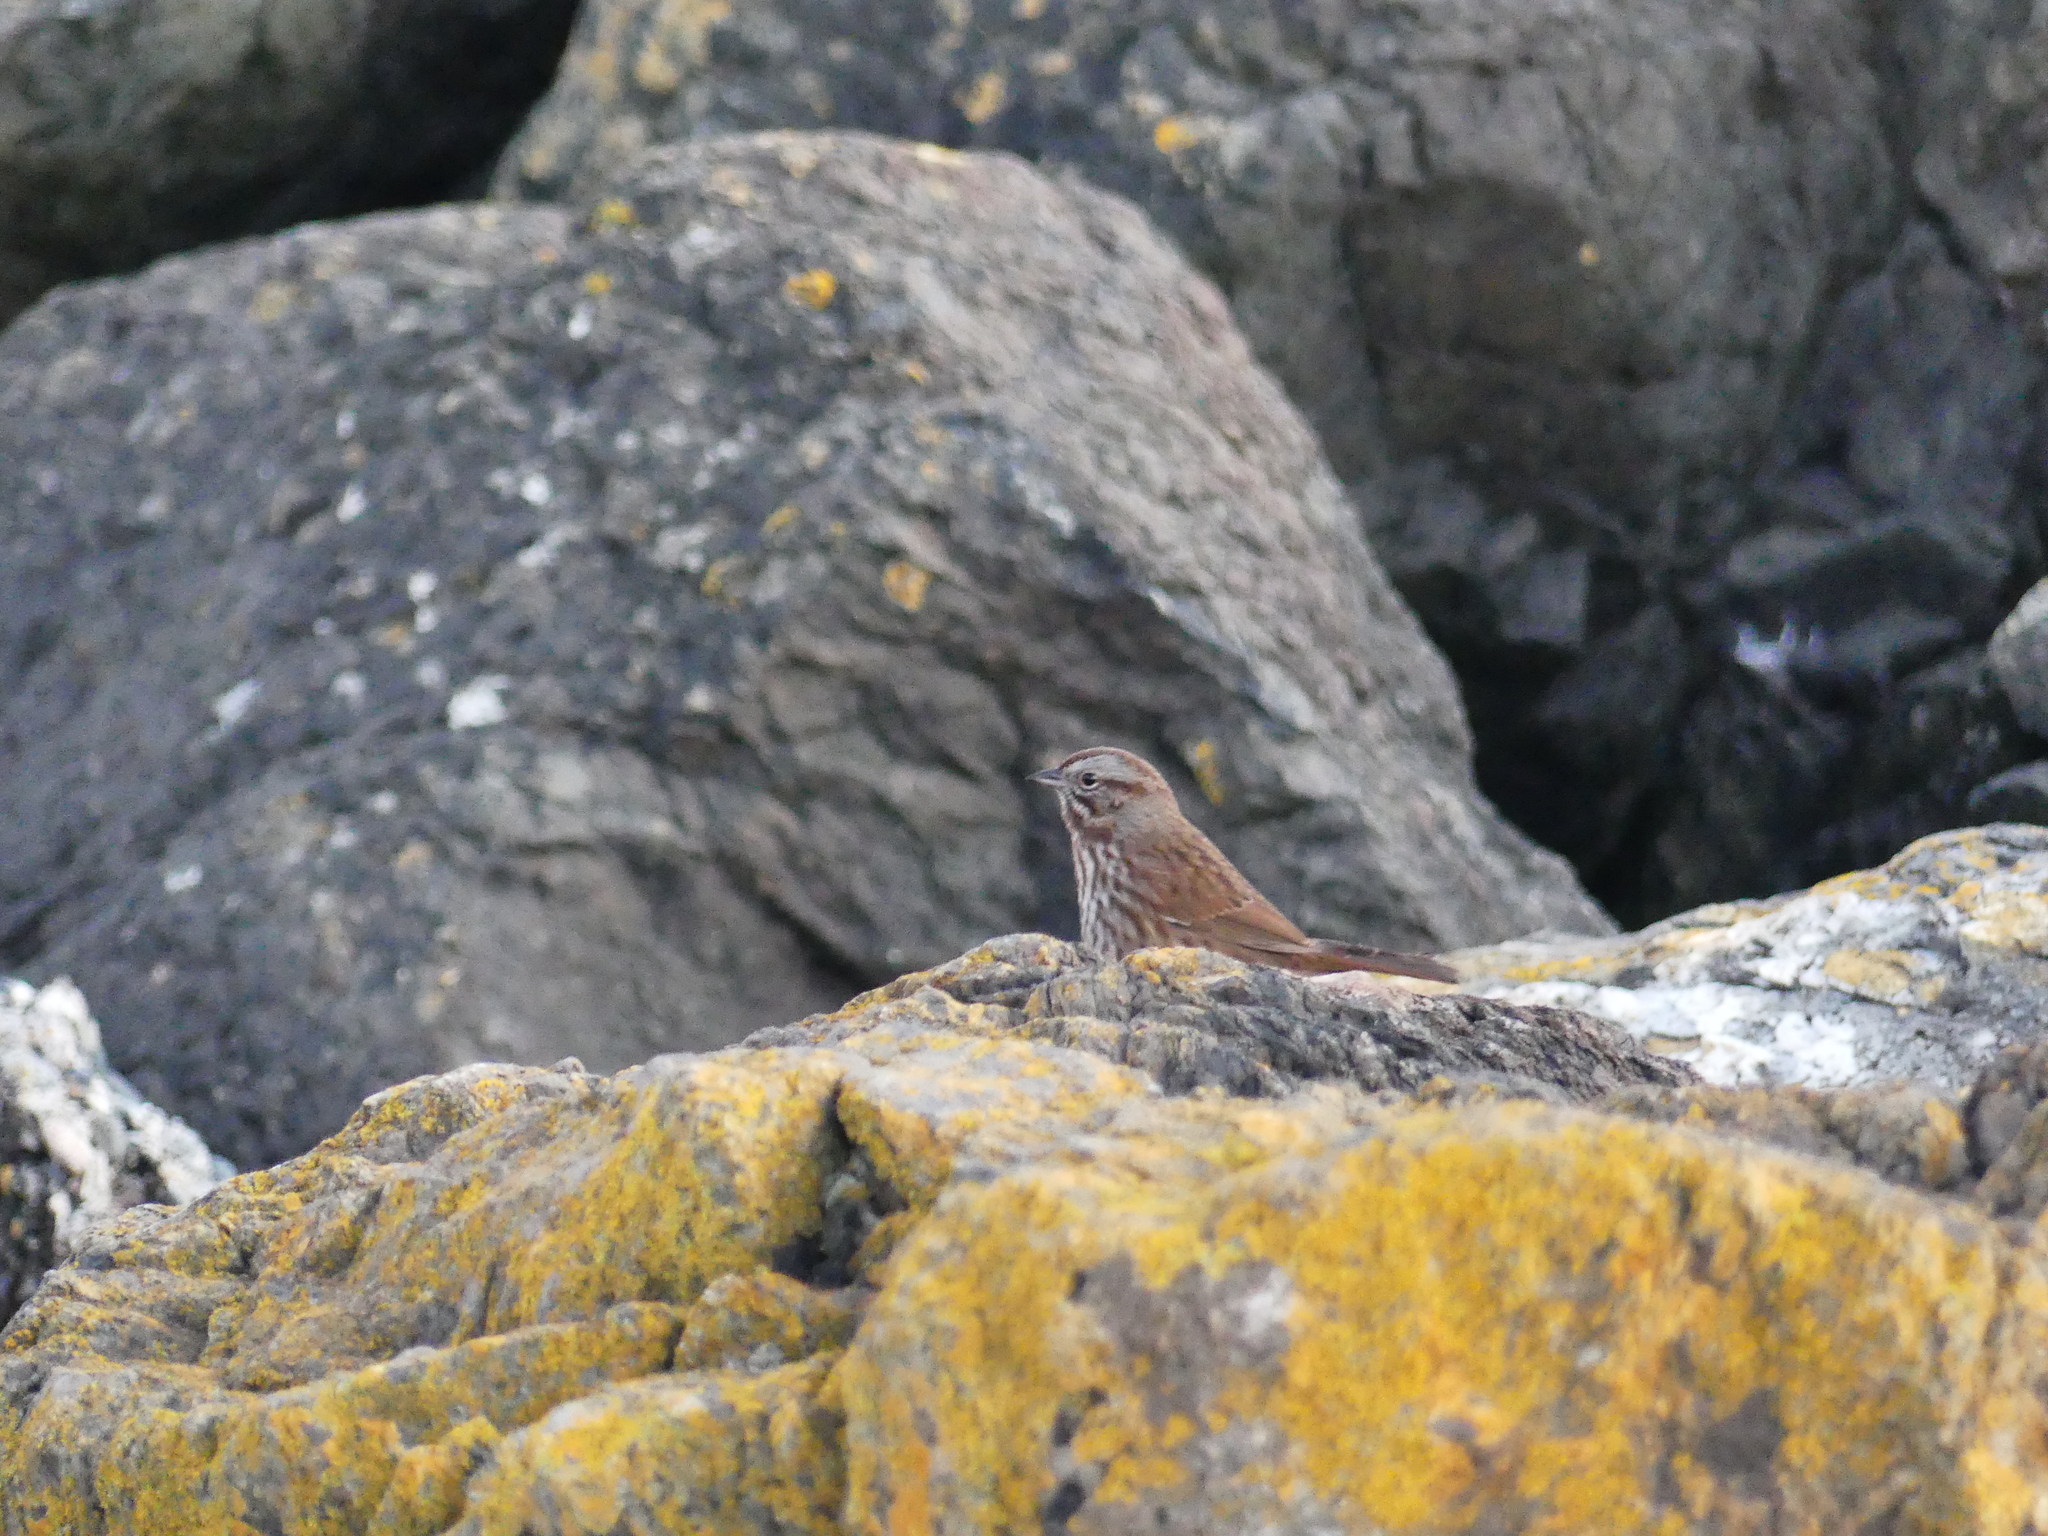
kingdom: Animalia
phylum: Chordata
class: Aves
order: Passeriformes
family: Passerellidae
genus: Melospiza
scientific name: Melospiza melodia
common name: Song sparrow
